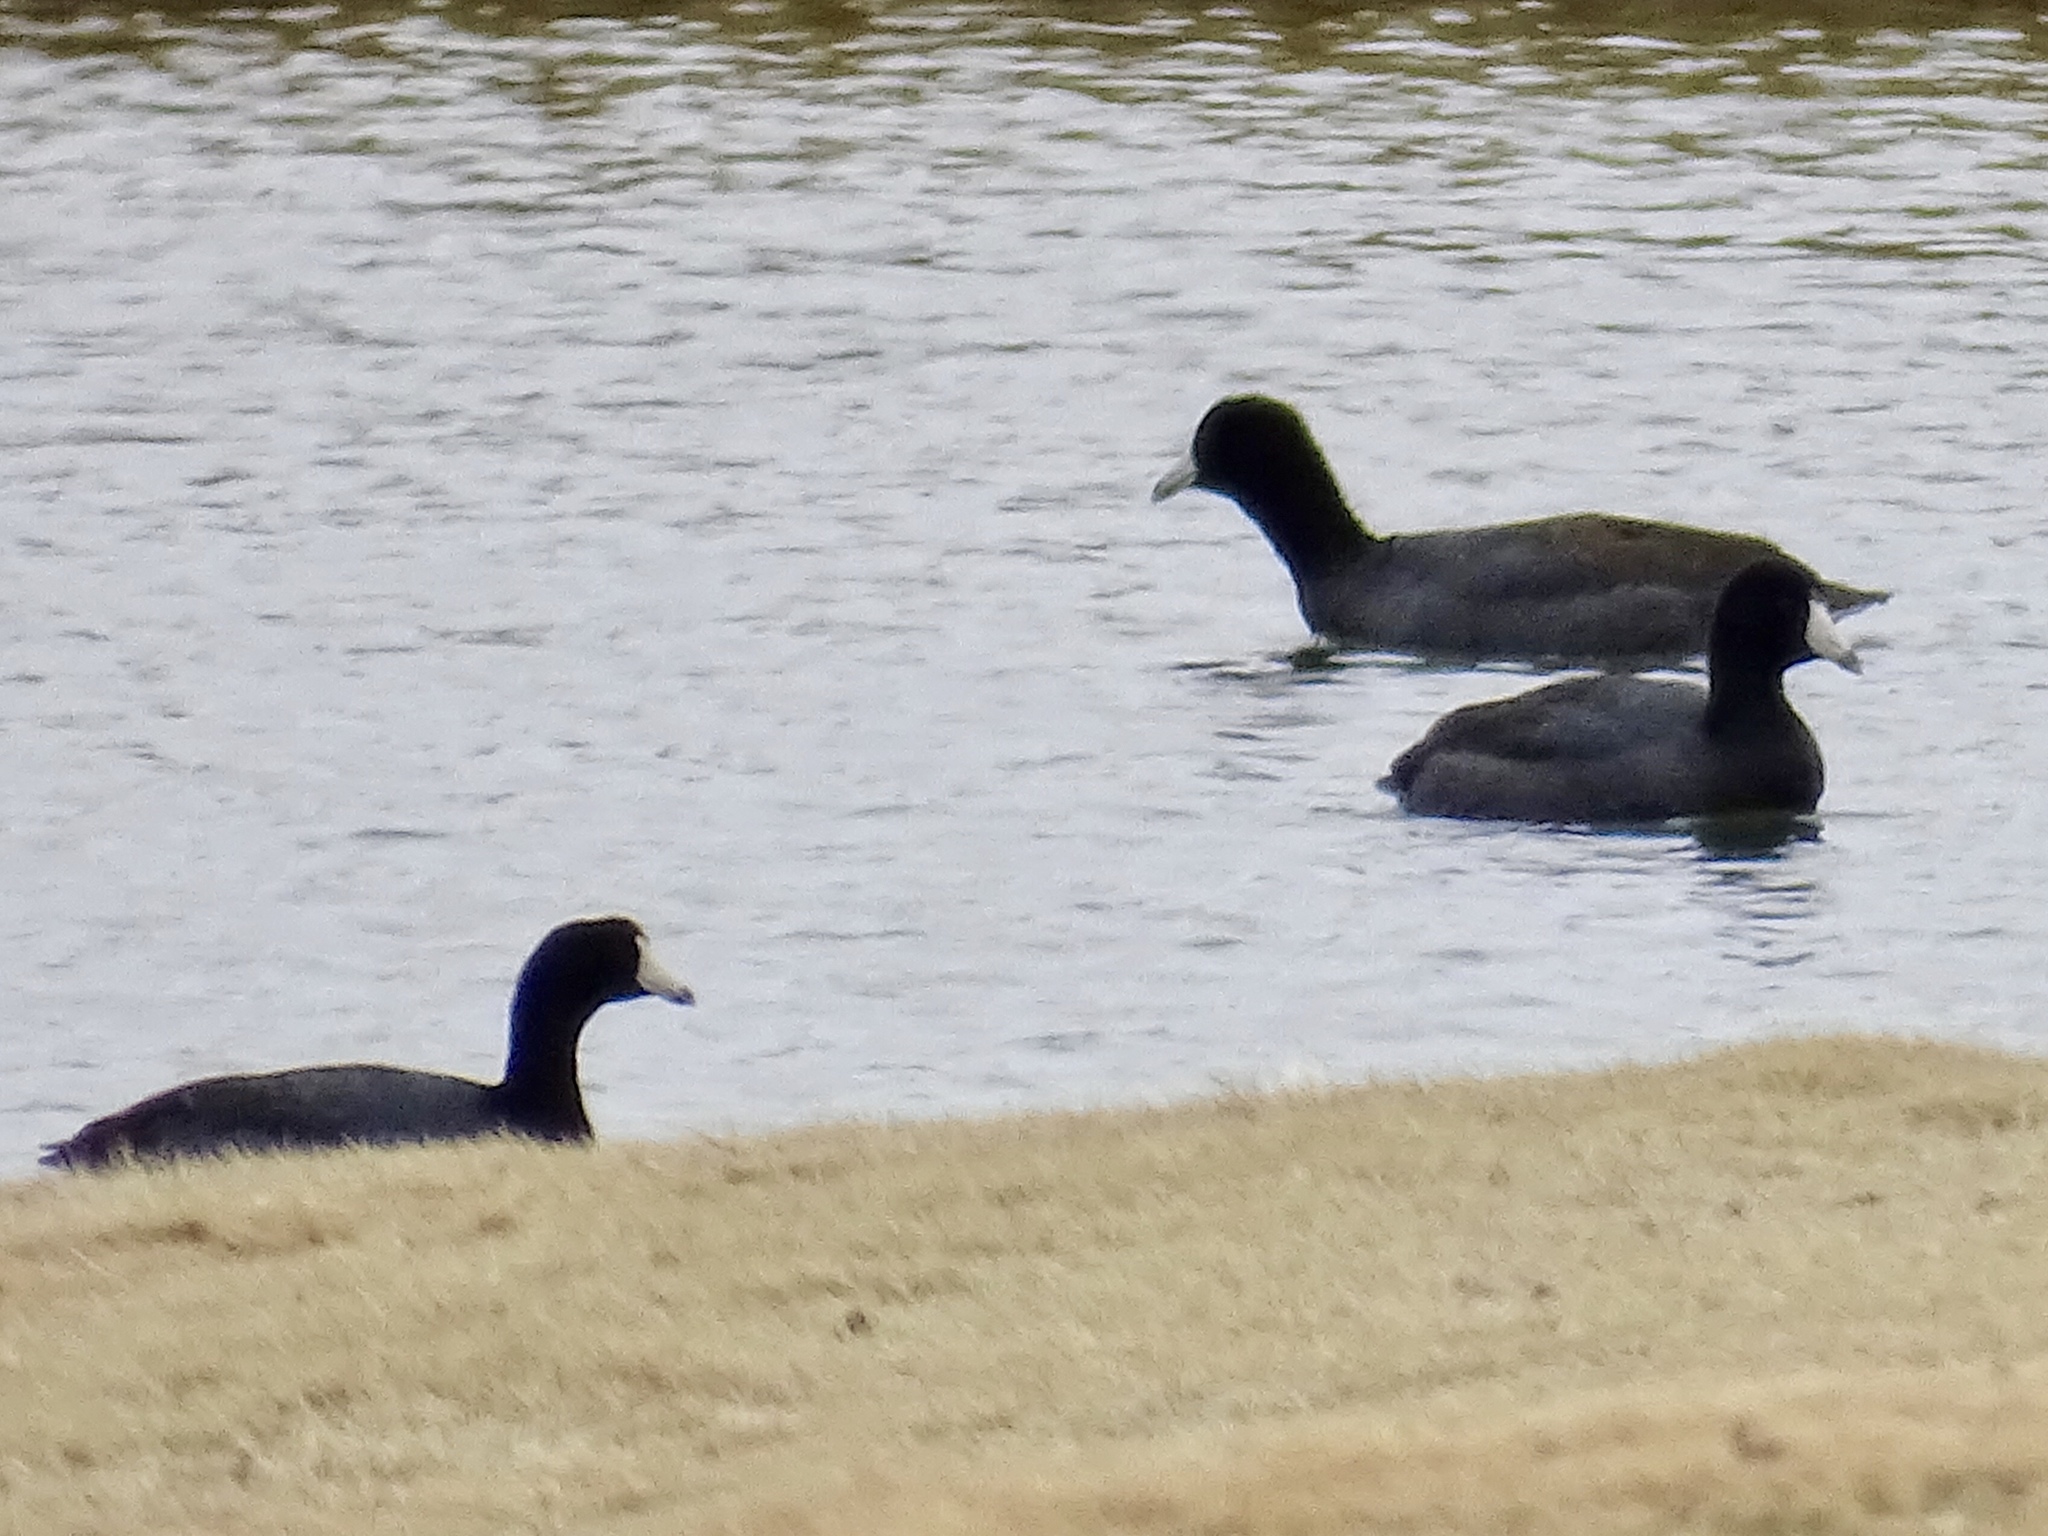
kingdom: Animalia
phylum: Chordata
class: Aves
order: Gruiformes
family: Rallidae
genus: Fulica
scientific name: Fulica americana
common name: American coot
